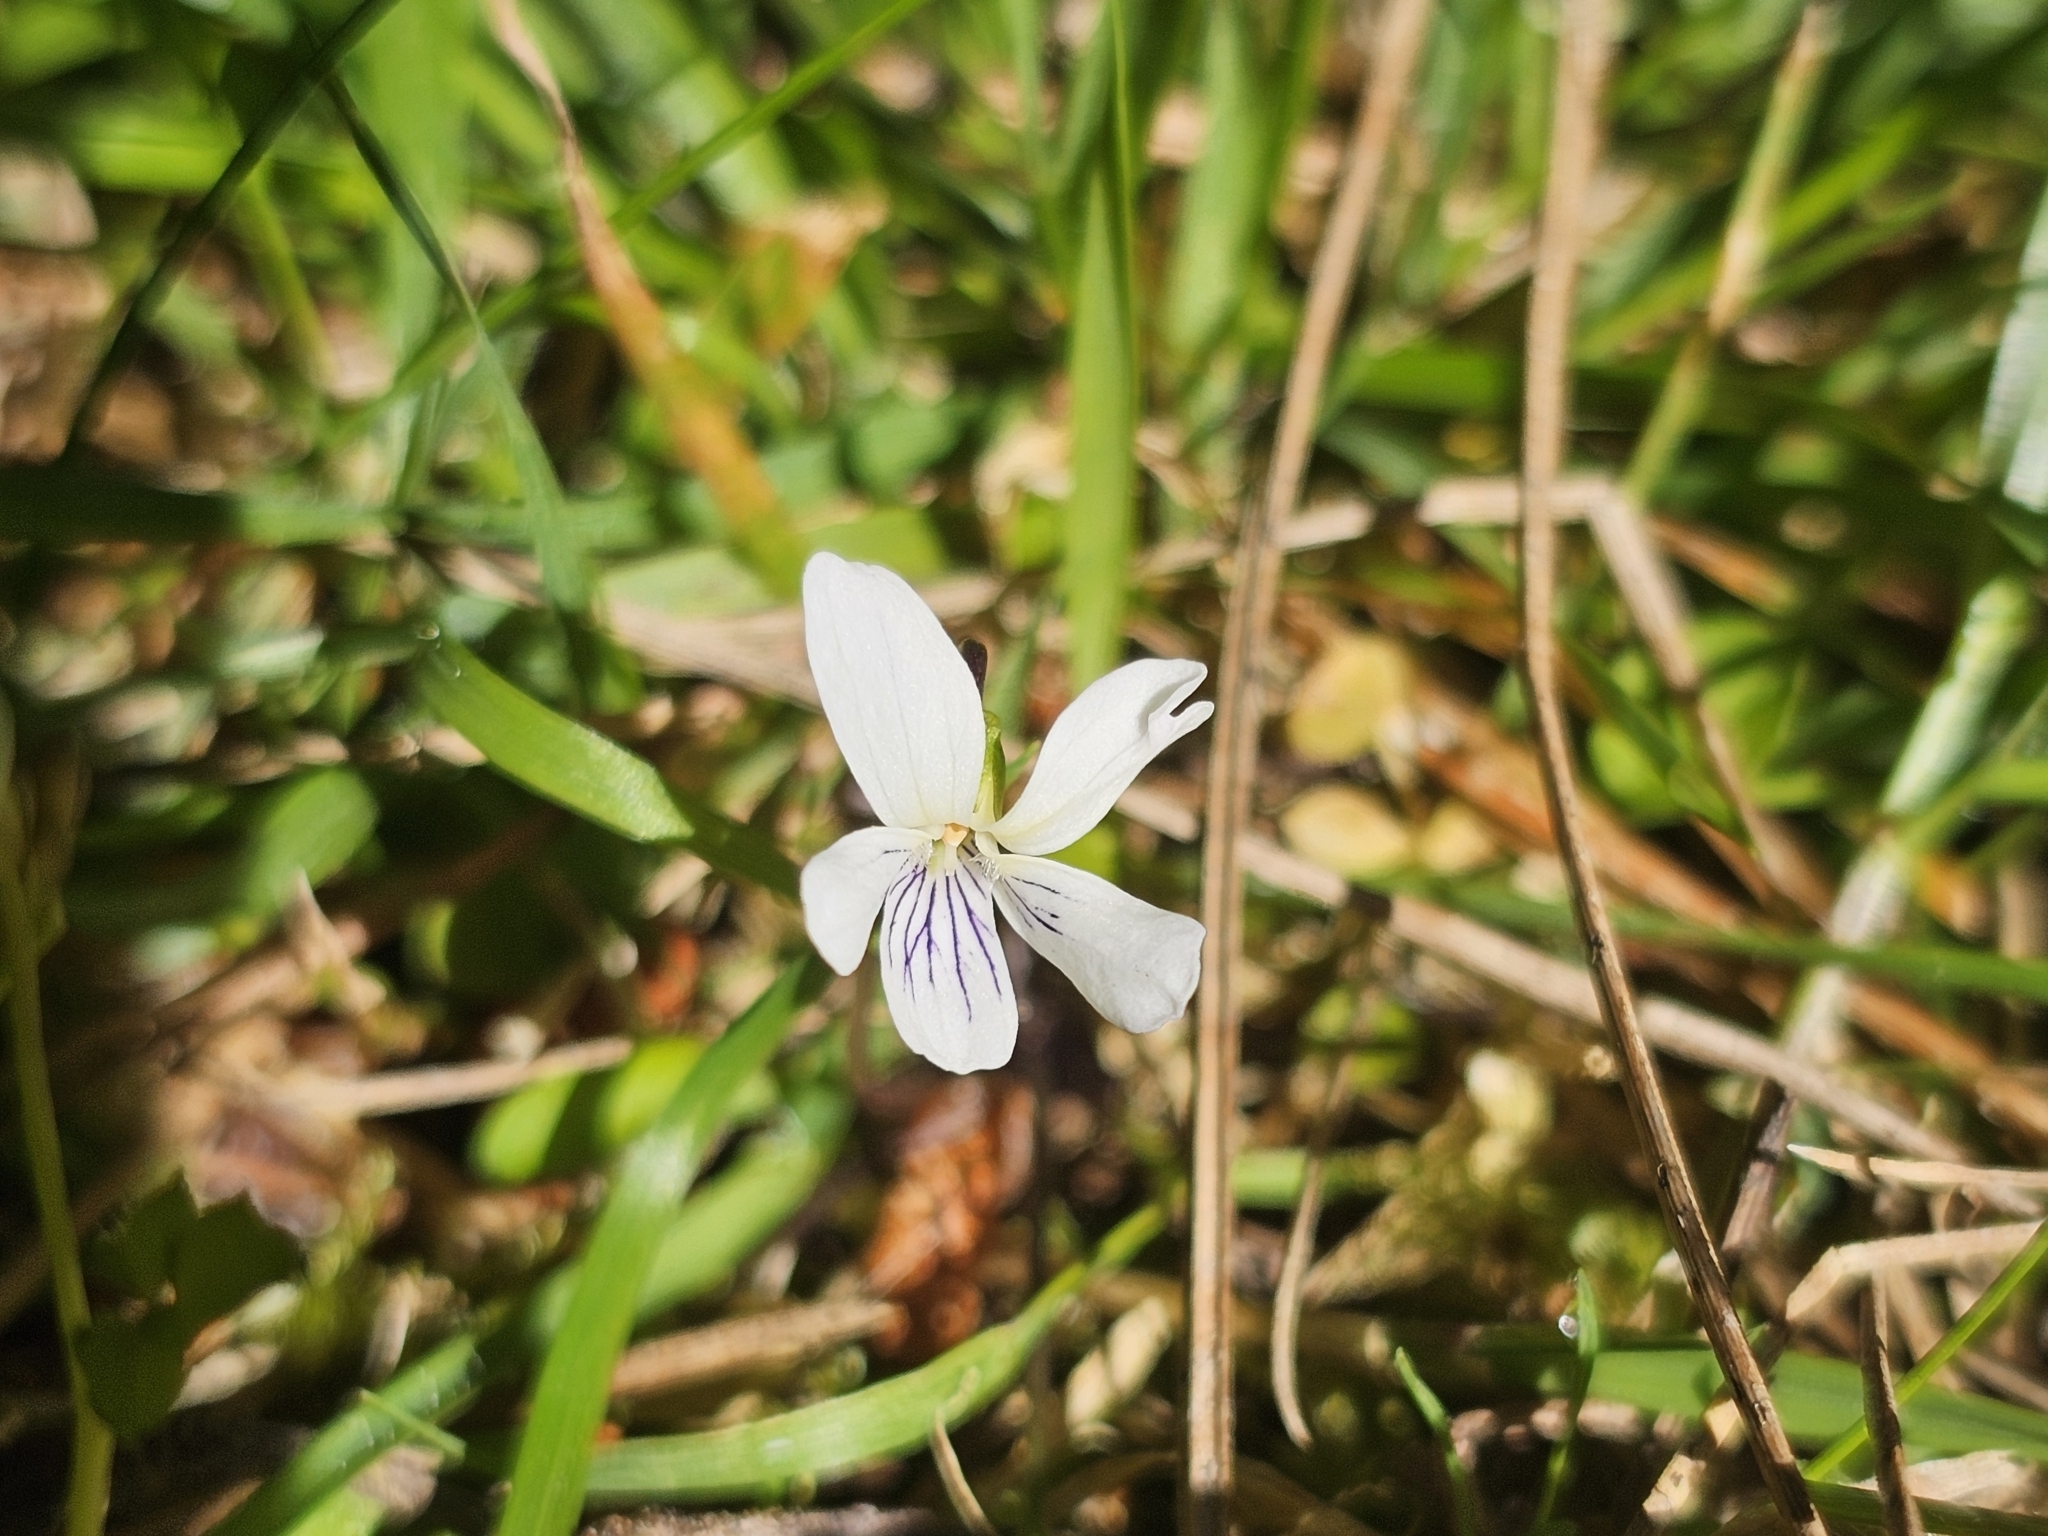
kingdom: Plantae
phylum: Tracheophyta
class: Magnoliopsida
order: Malpighiales
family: Violaceae
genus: Viola
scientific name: Viola cunninghamii
